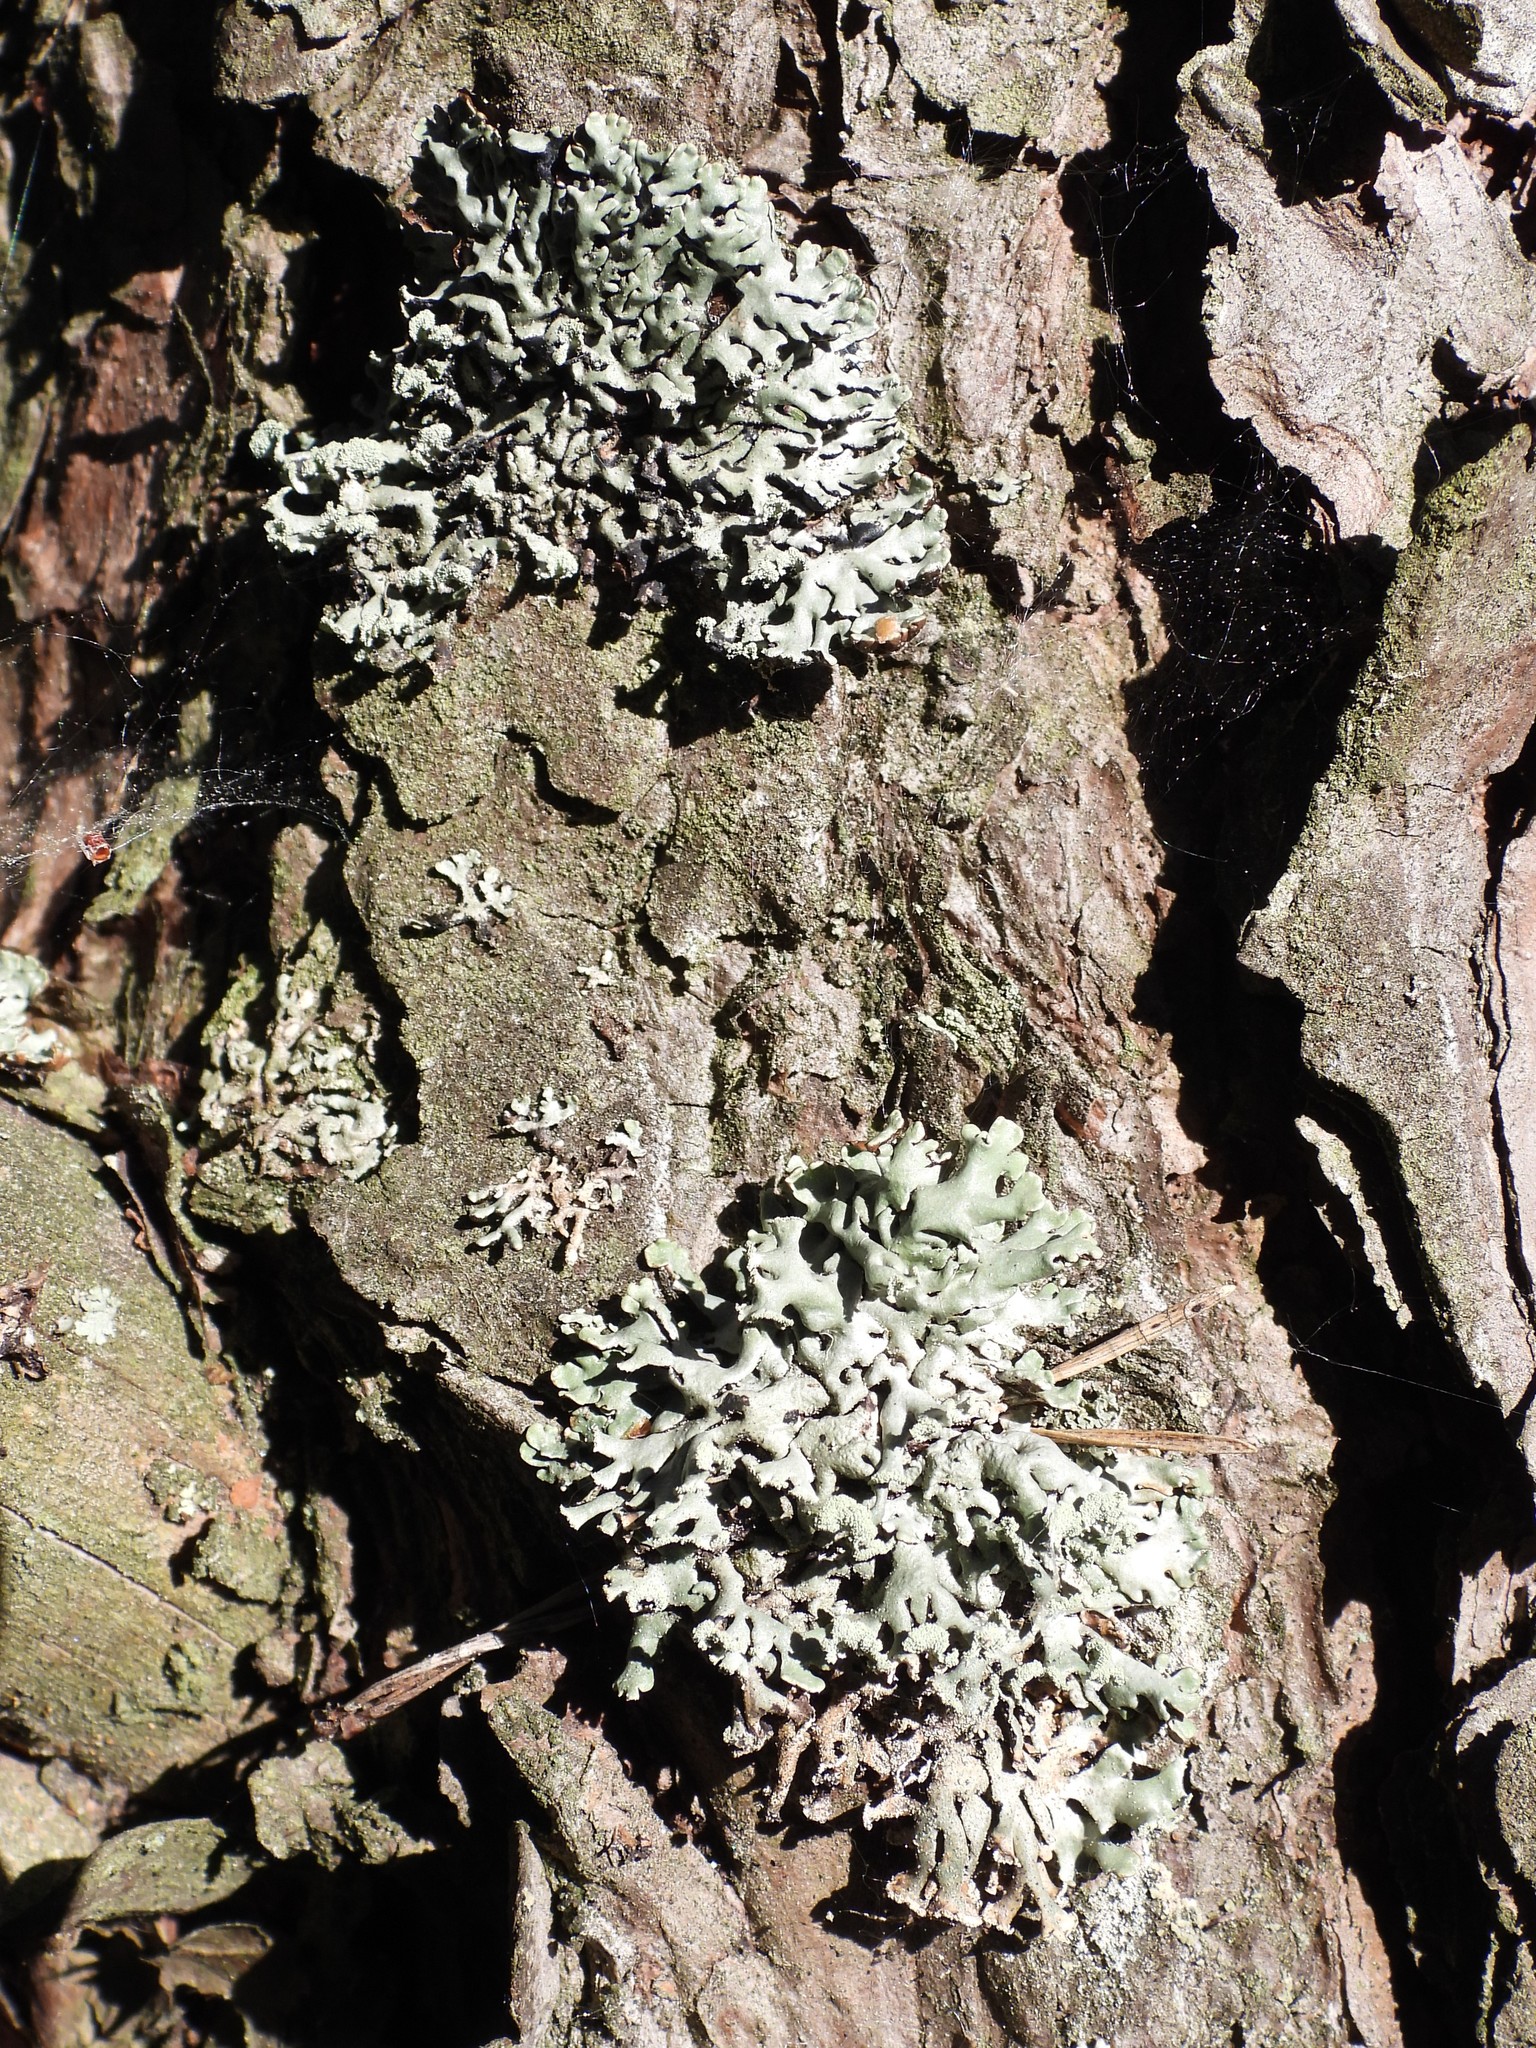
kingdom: Fungi
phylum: Ascomycota
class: Lecanoromycetes
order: Lecanorales
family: Parmeliaceae
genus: Hypogymnia
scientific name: Hypogymnia physodes
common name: Dark crottle
